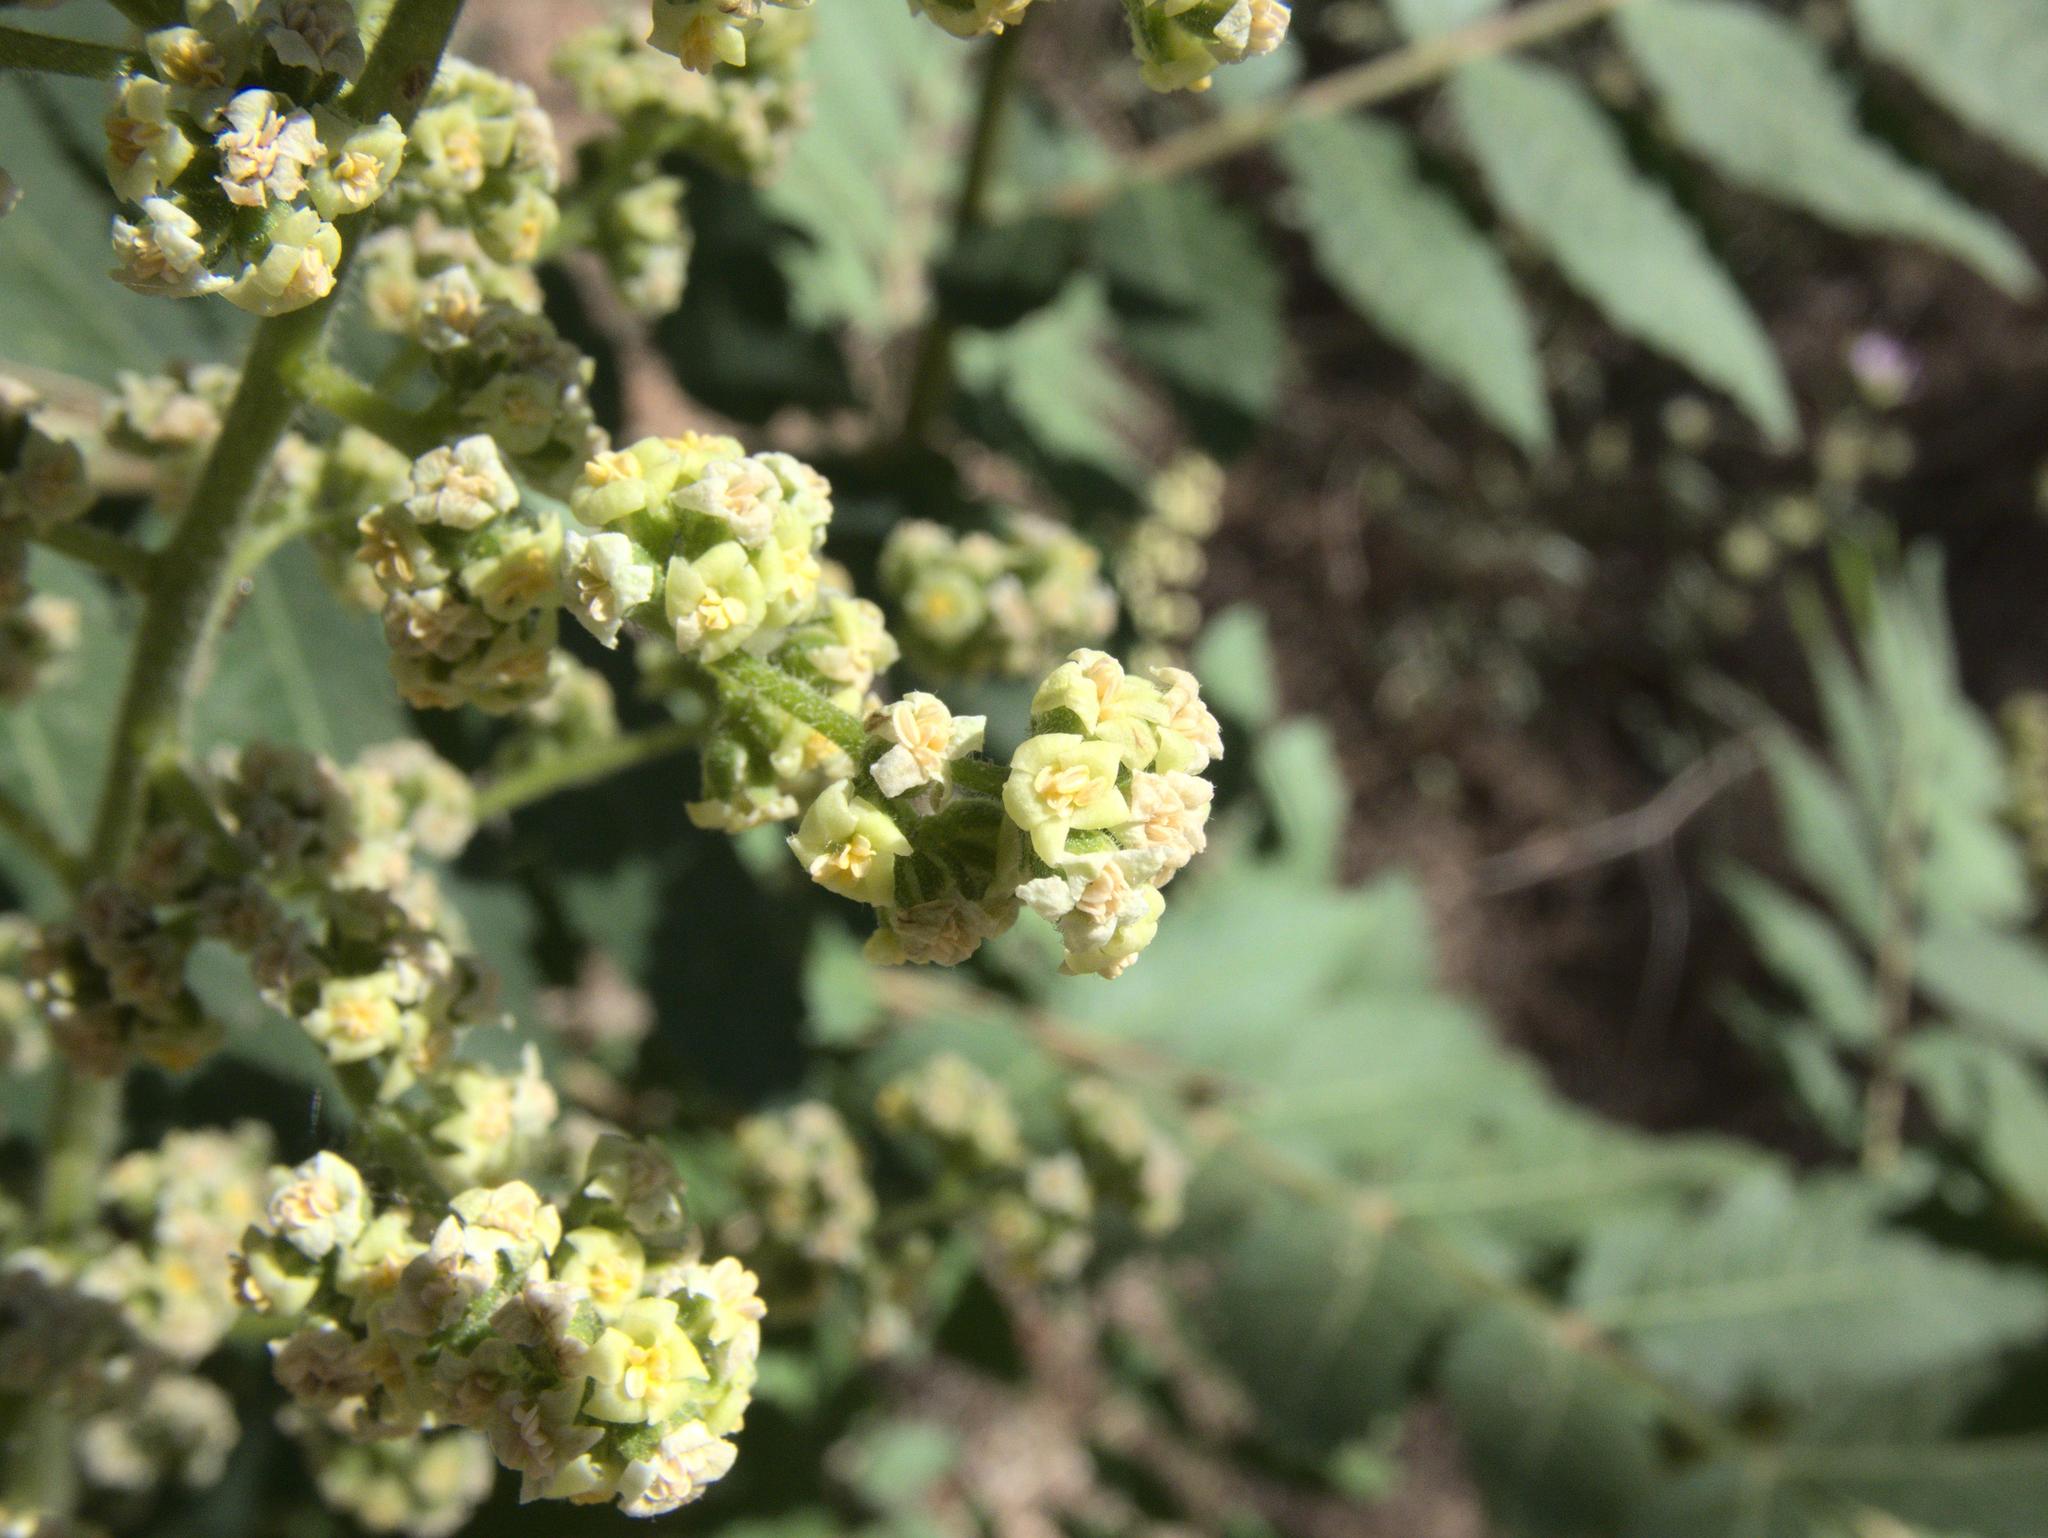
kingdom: Plantae
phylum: Tracheophyta
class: Magnoliopsida
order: Sapindales
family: Anacardiaceae
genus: Rhus
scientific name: Rhus typhina
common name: Staghorn sumac
